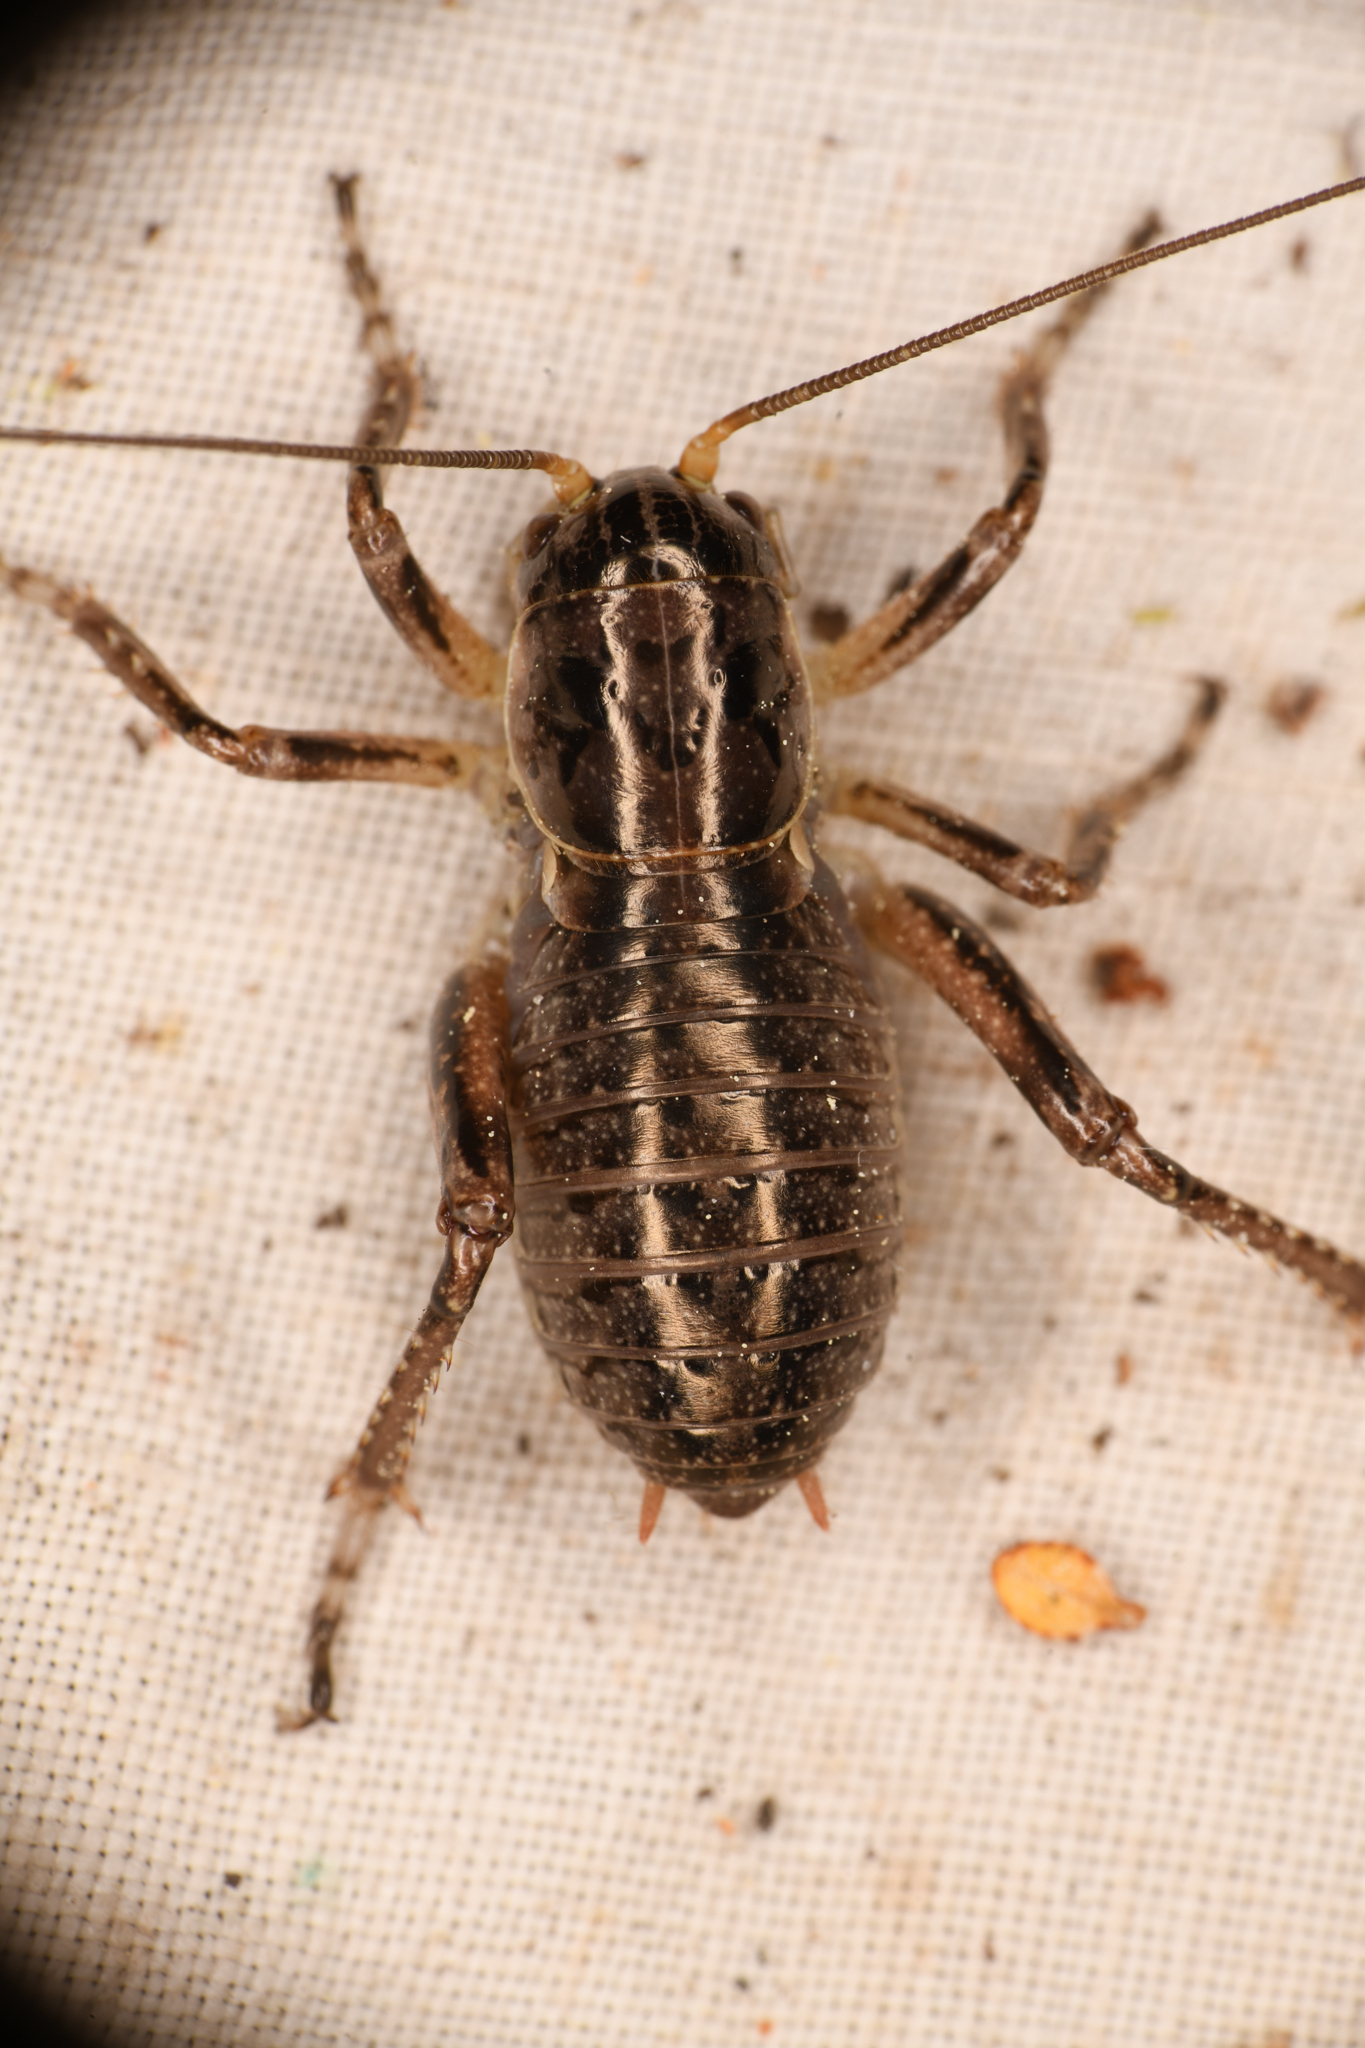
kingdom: Animalia
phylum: Arthropoda
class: Insecta
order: Orthoptera
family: Prophalangopsidae
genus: Cyphoderris
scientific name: Cyphoderris monstrosa
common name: Great grig
